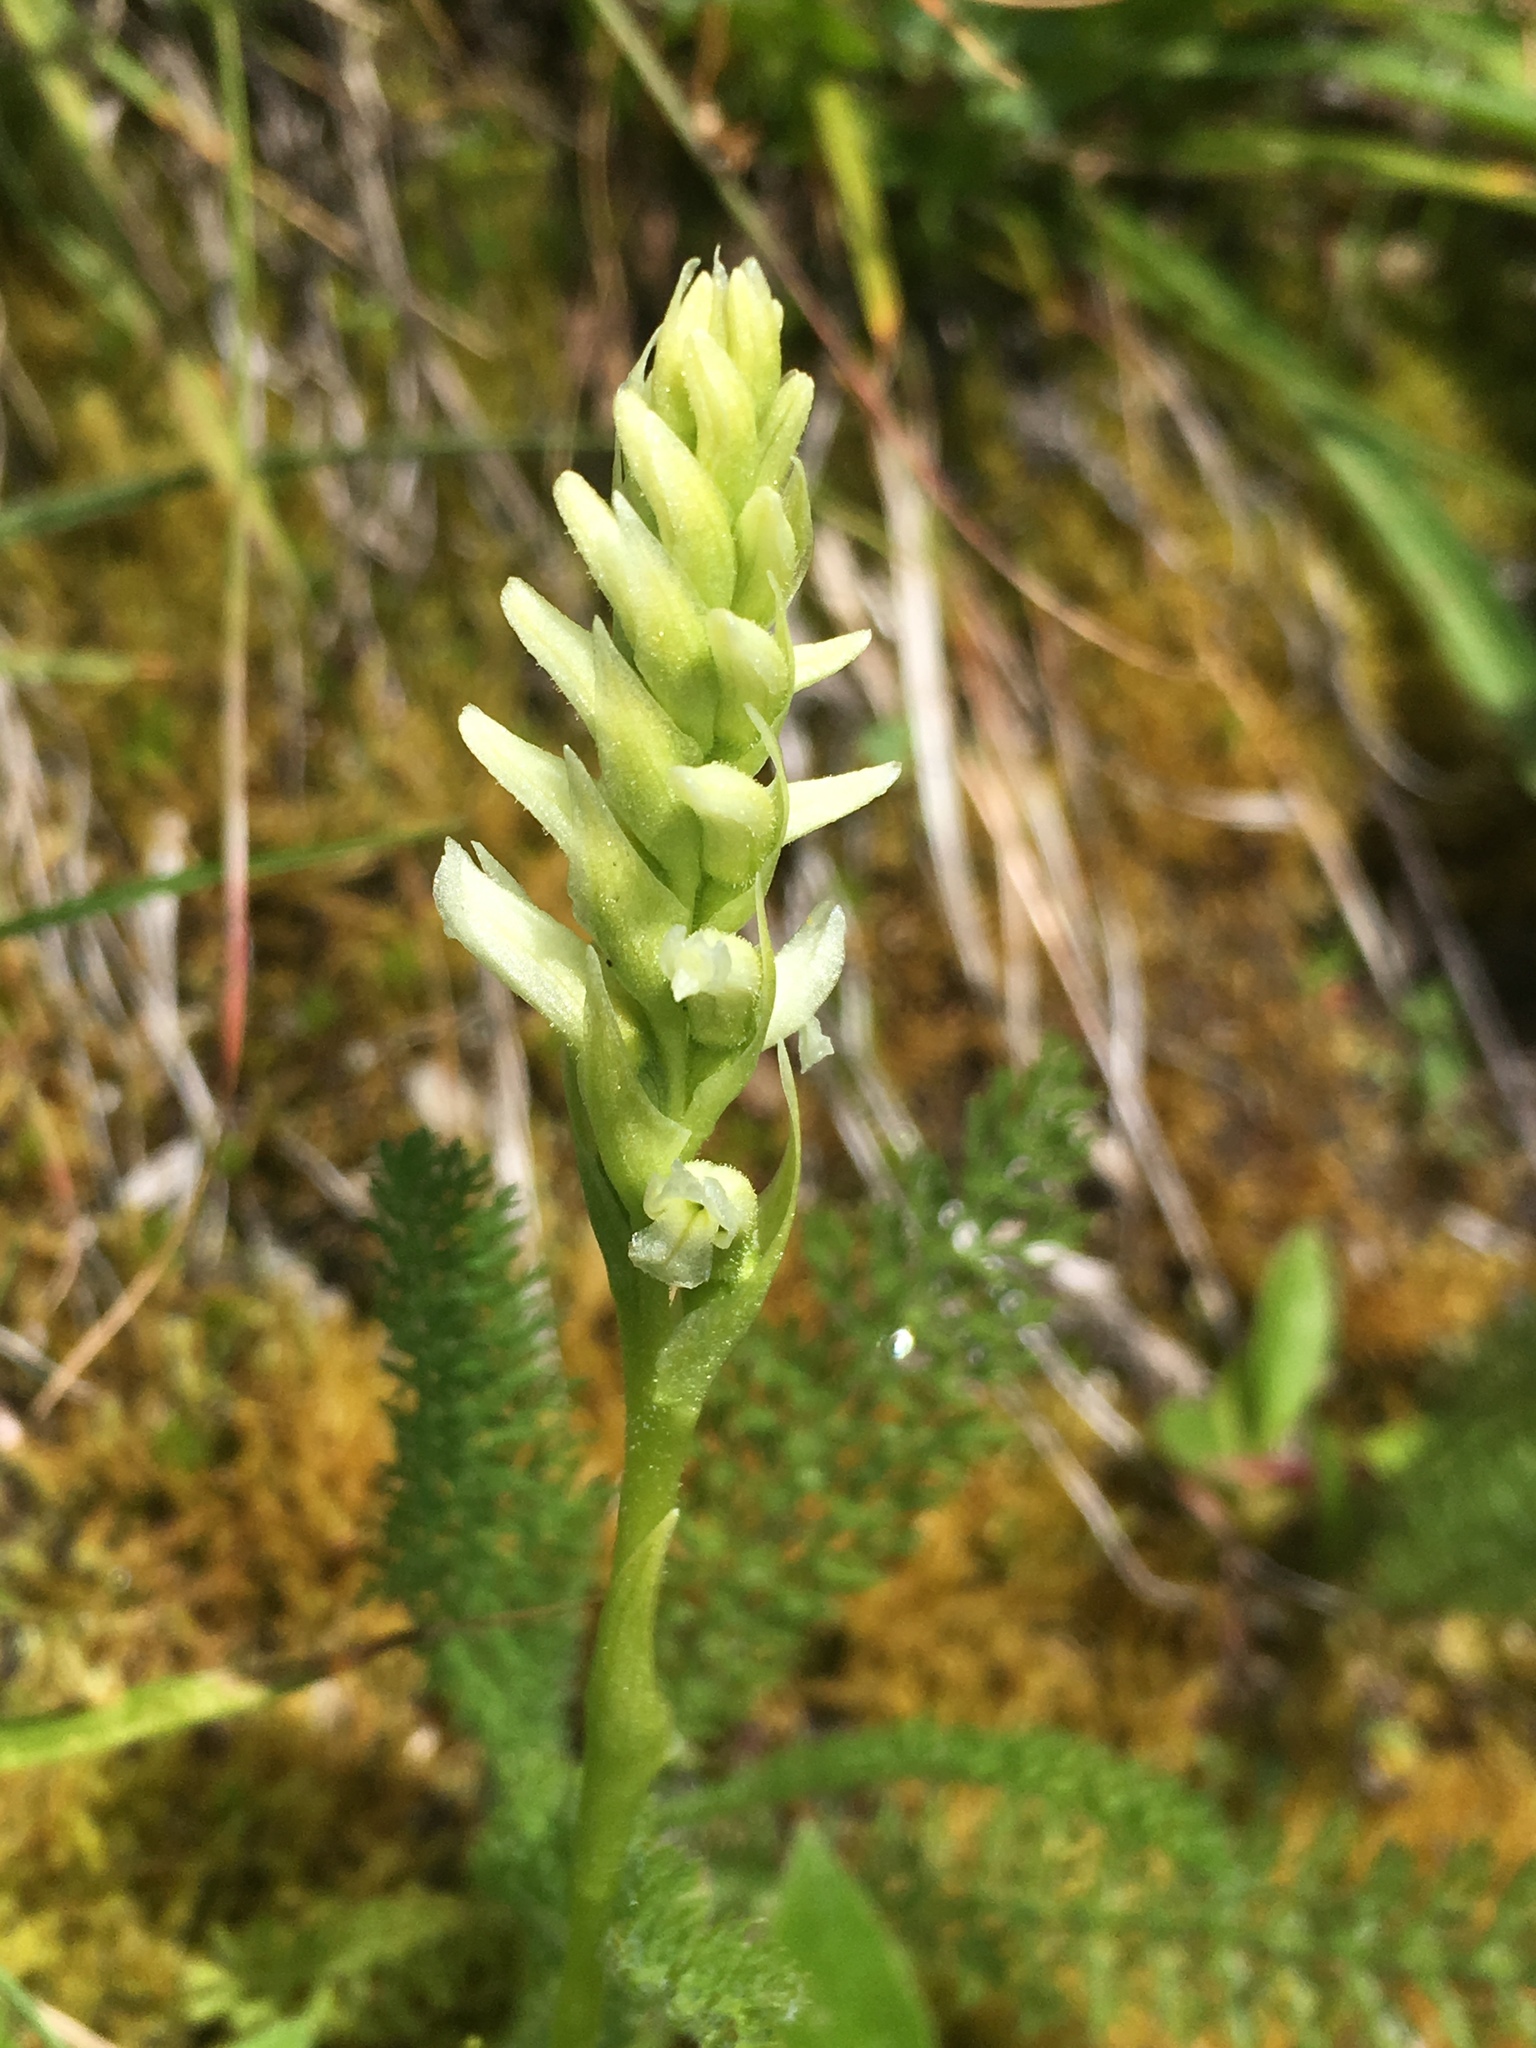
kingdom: Plantae
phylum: Tracheophyta
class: Liliopsida
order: Asparagales
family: Orchidaceae
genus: Spiranthes
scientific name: Spiranthes romanzoffiana
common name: Irish lady's-tresses
